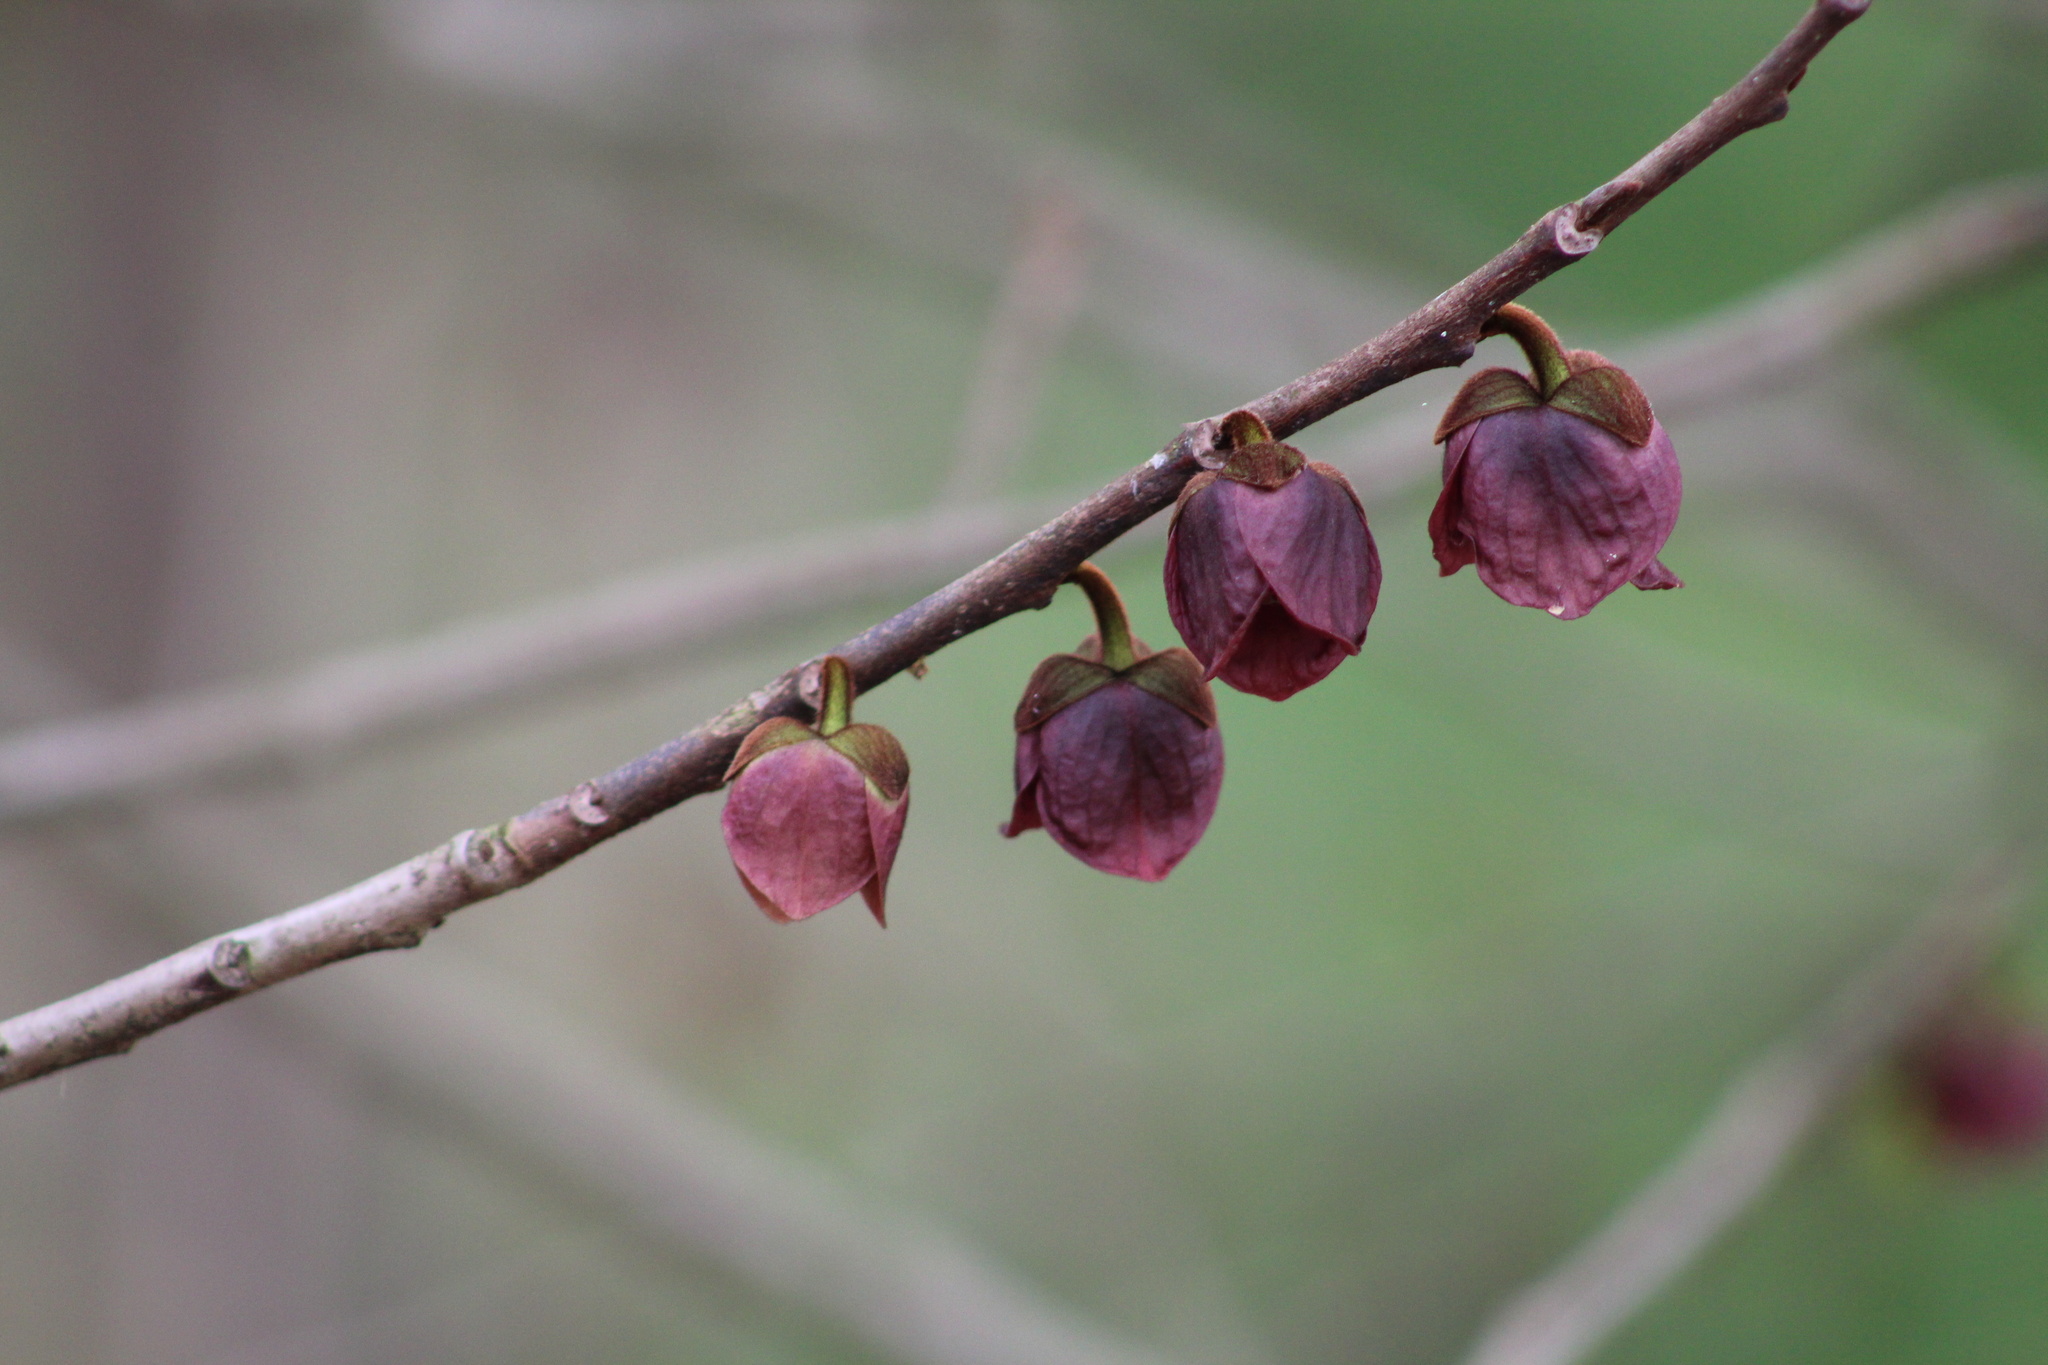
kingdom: Plantae
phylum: Tracheophyta
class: Magnoliopsida
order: Magnoliales
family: Annonaceae
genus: Asimina
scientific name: Asimina triloba
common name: Dog-banana
